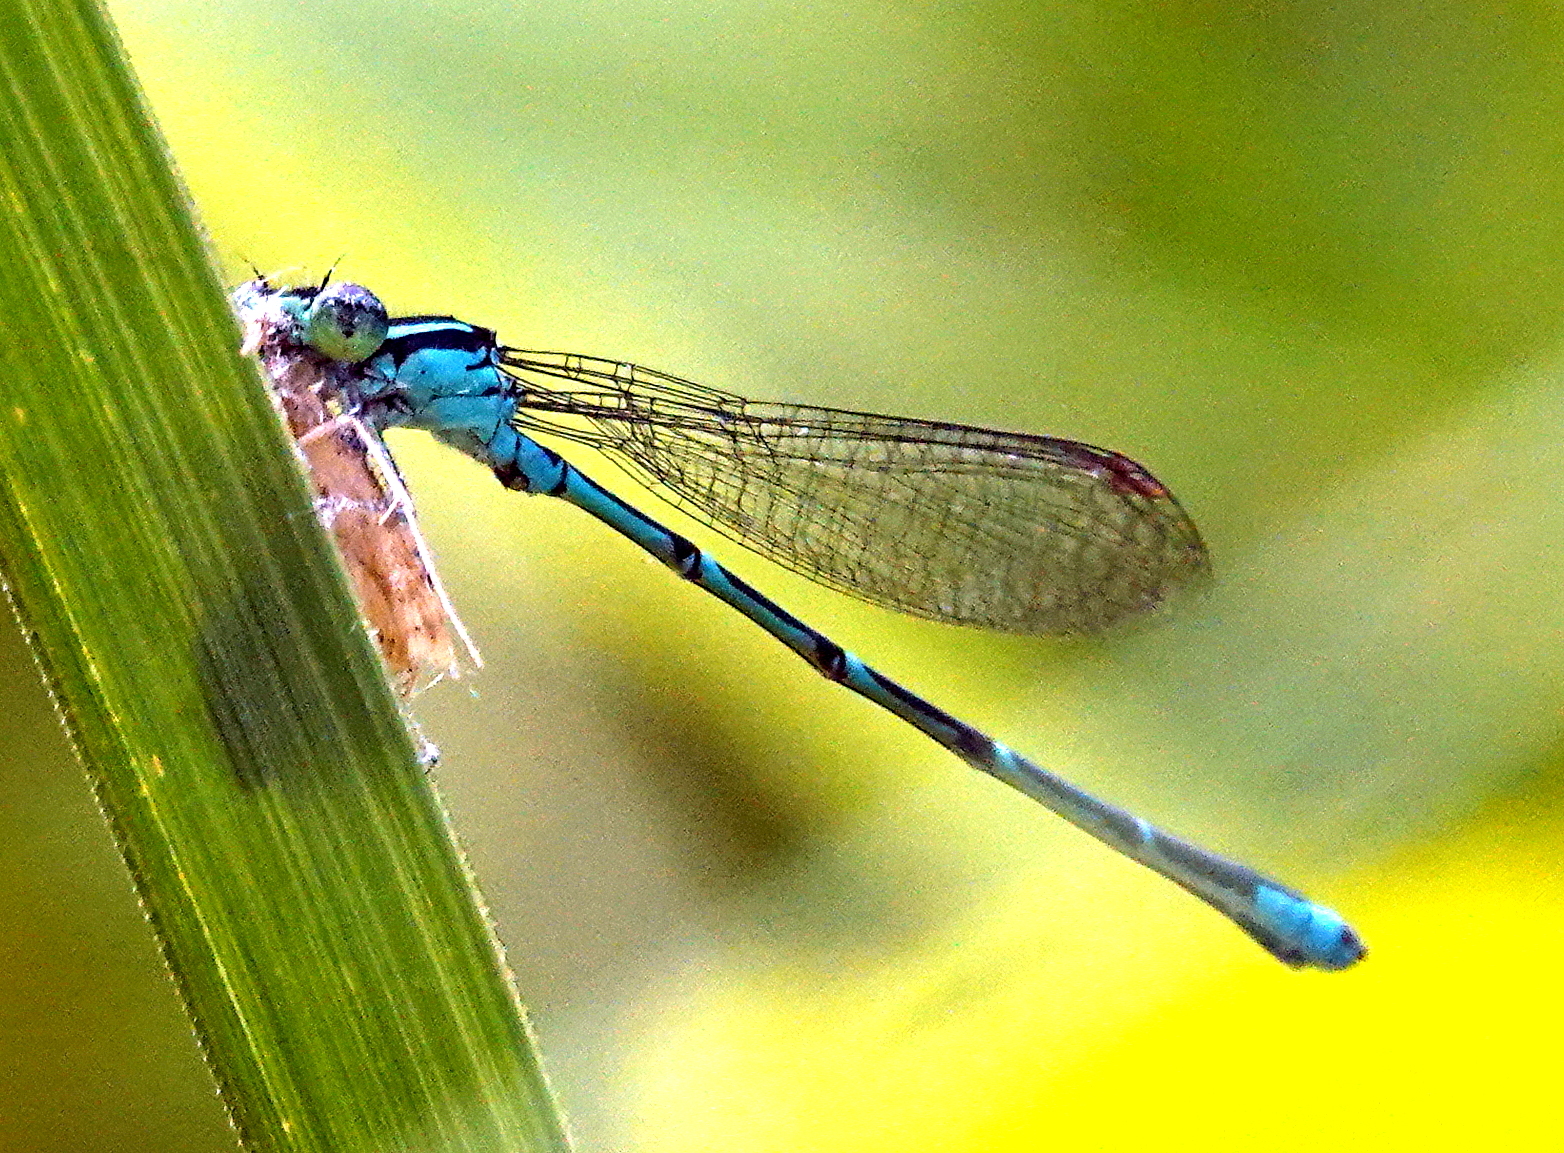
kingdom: Animalia
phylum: Arthropoda
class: Insecta
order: Odonata
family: Coenagrionidae
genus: Enallagma
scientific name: Enallagma exsulans
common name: Stream bluet
